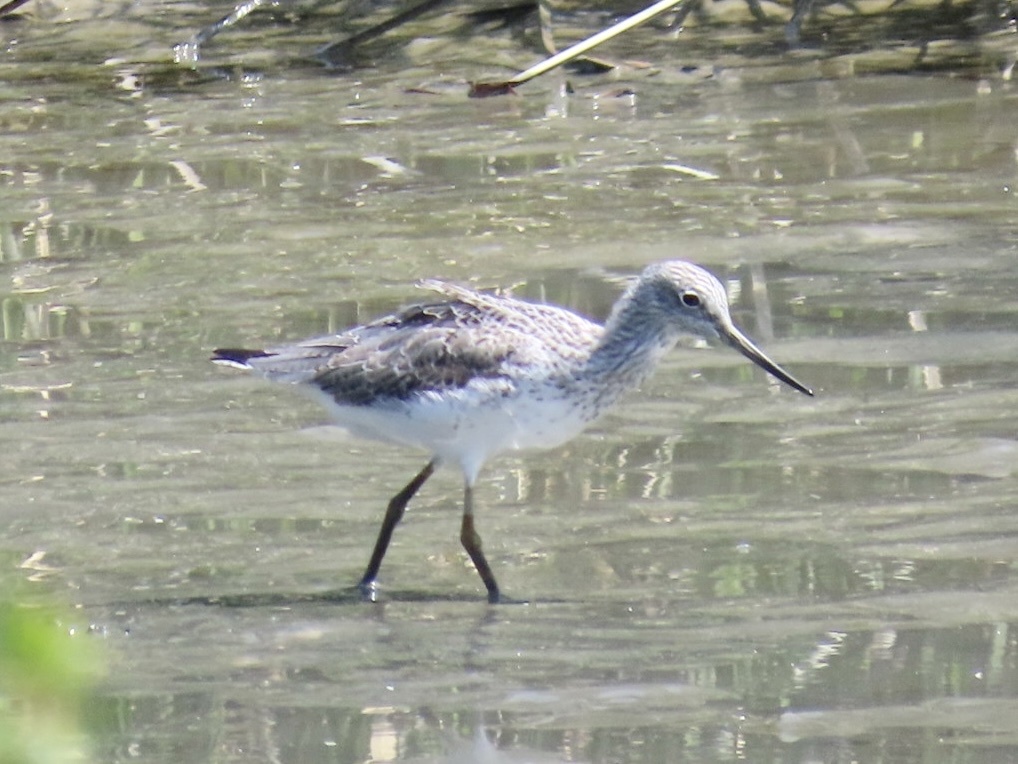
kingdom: Animalia
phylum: Chordata
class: Aves
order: Charadriiformes
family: Scolopacidae
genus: Tringa
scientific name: Tringa nebularia
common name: Common greenshank
